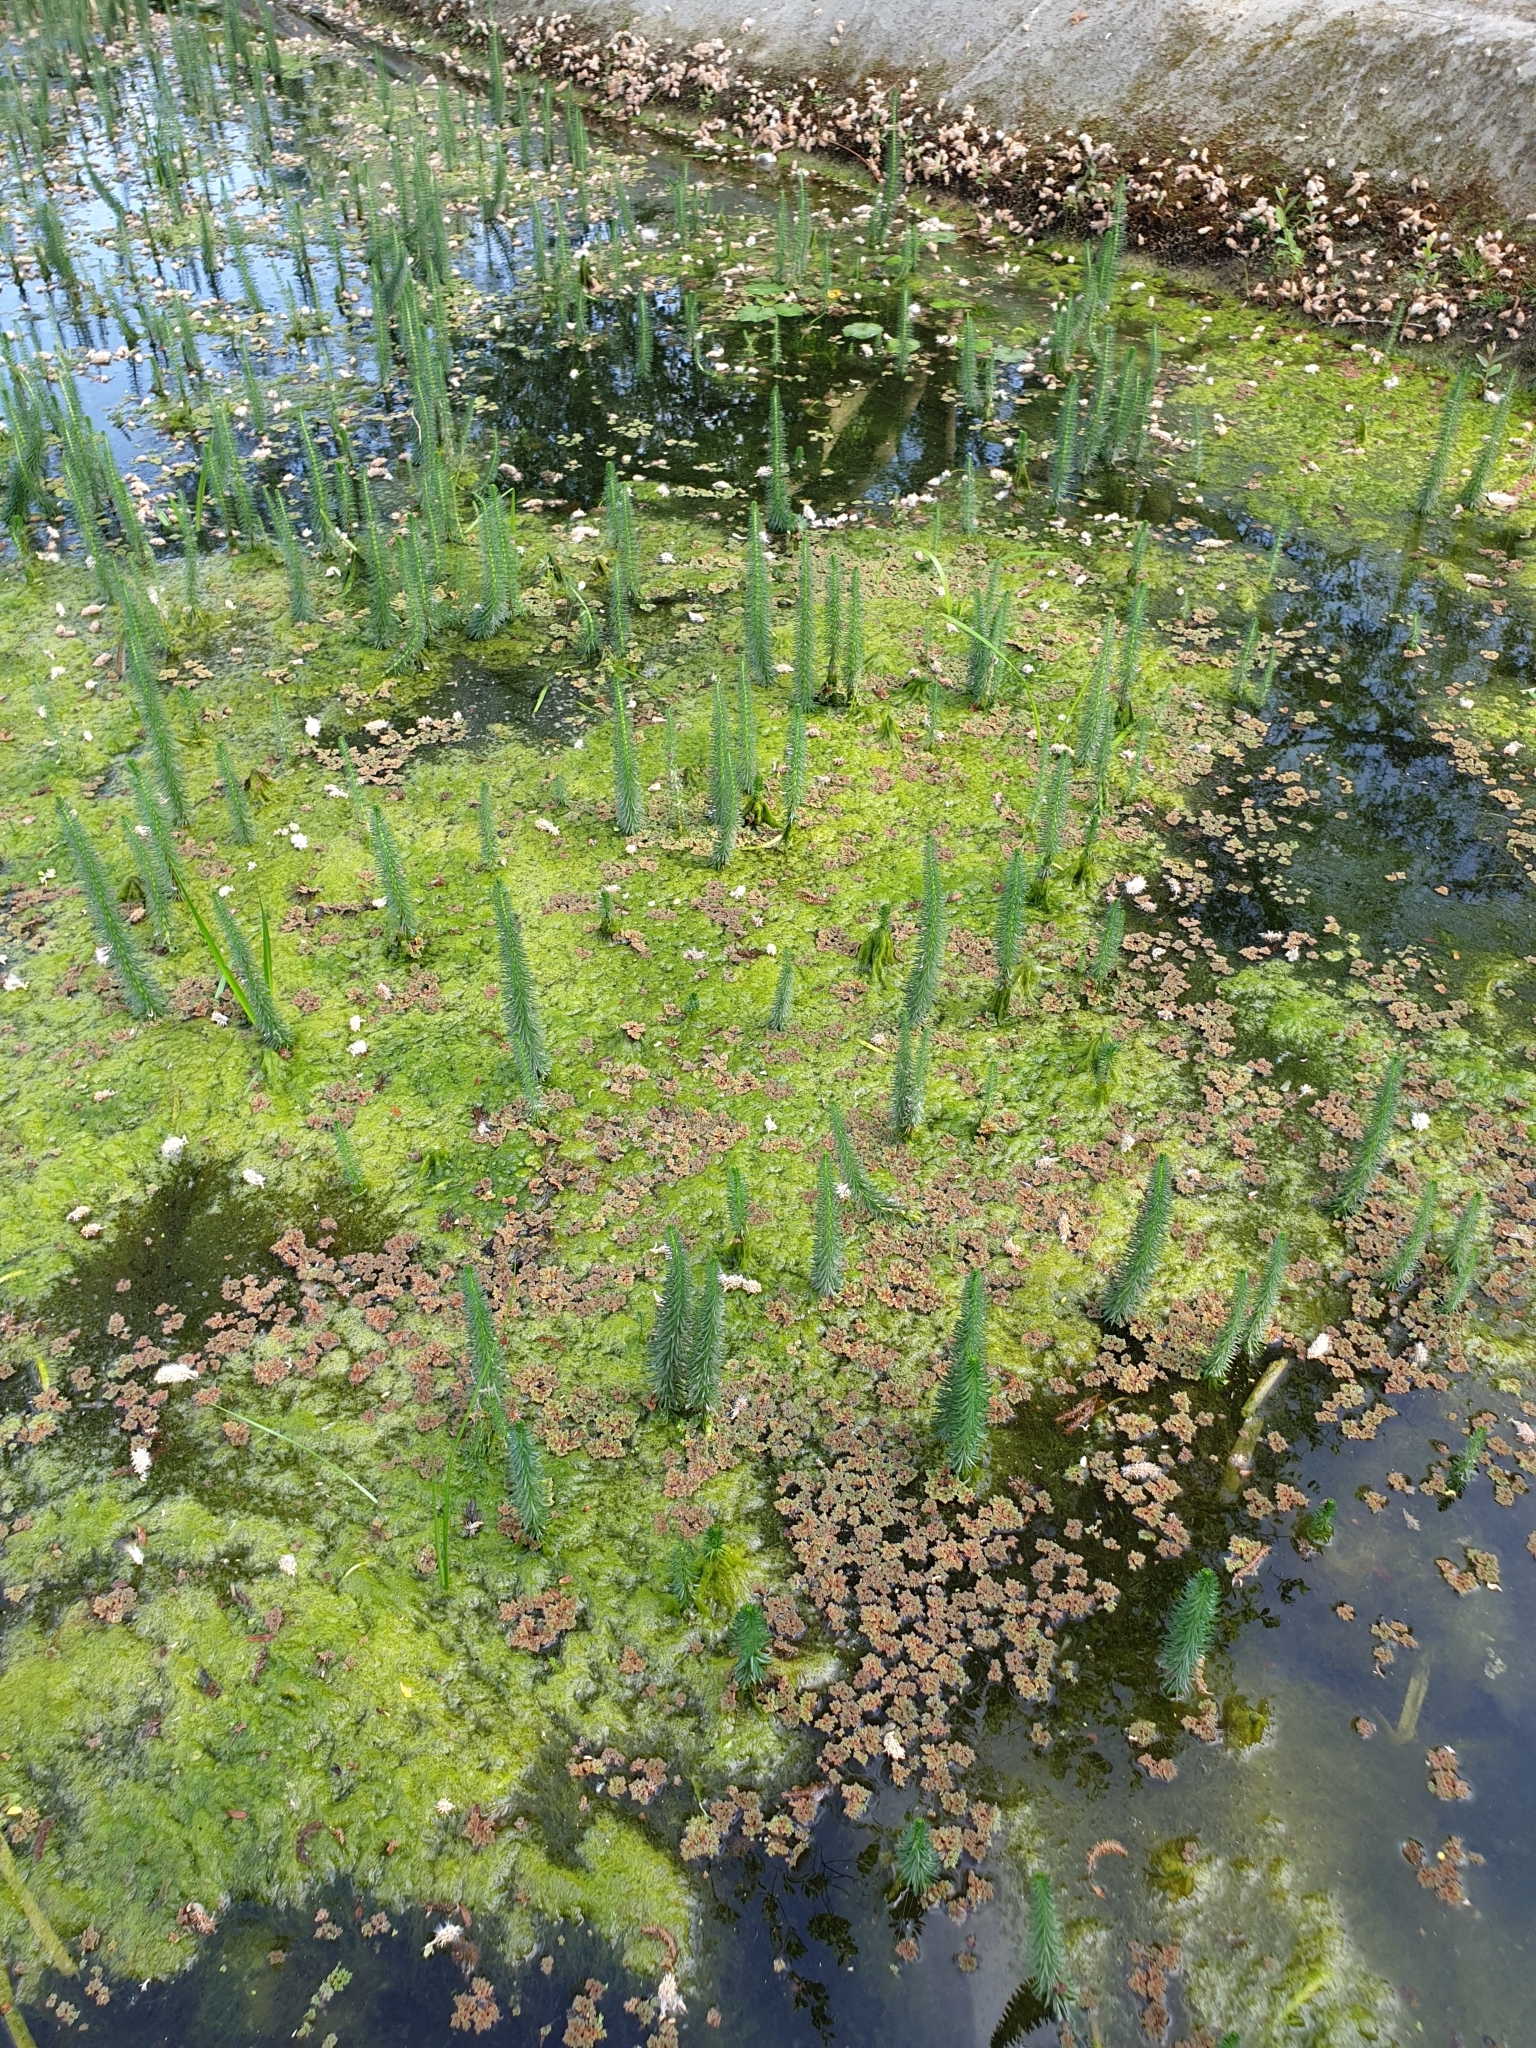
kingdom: Plantae
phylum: Tracheophyta
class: Magnoliopsida
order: Lamiales
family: Plantaginaceae
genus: Hippuris
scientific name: Hippuris vulgaris
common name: Mare's-tail
